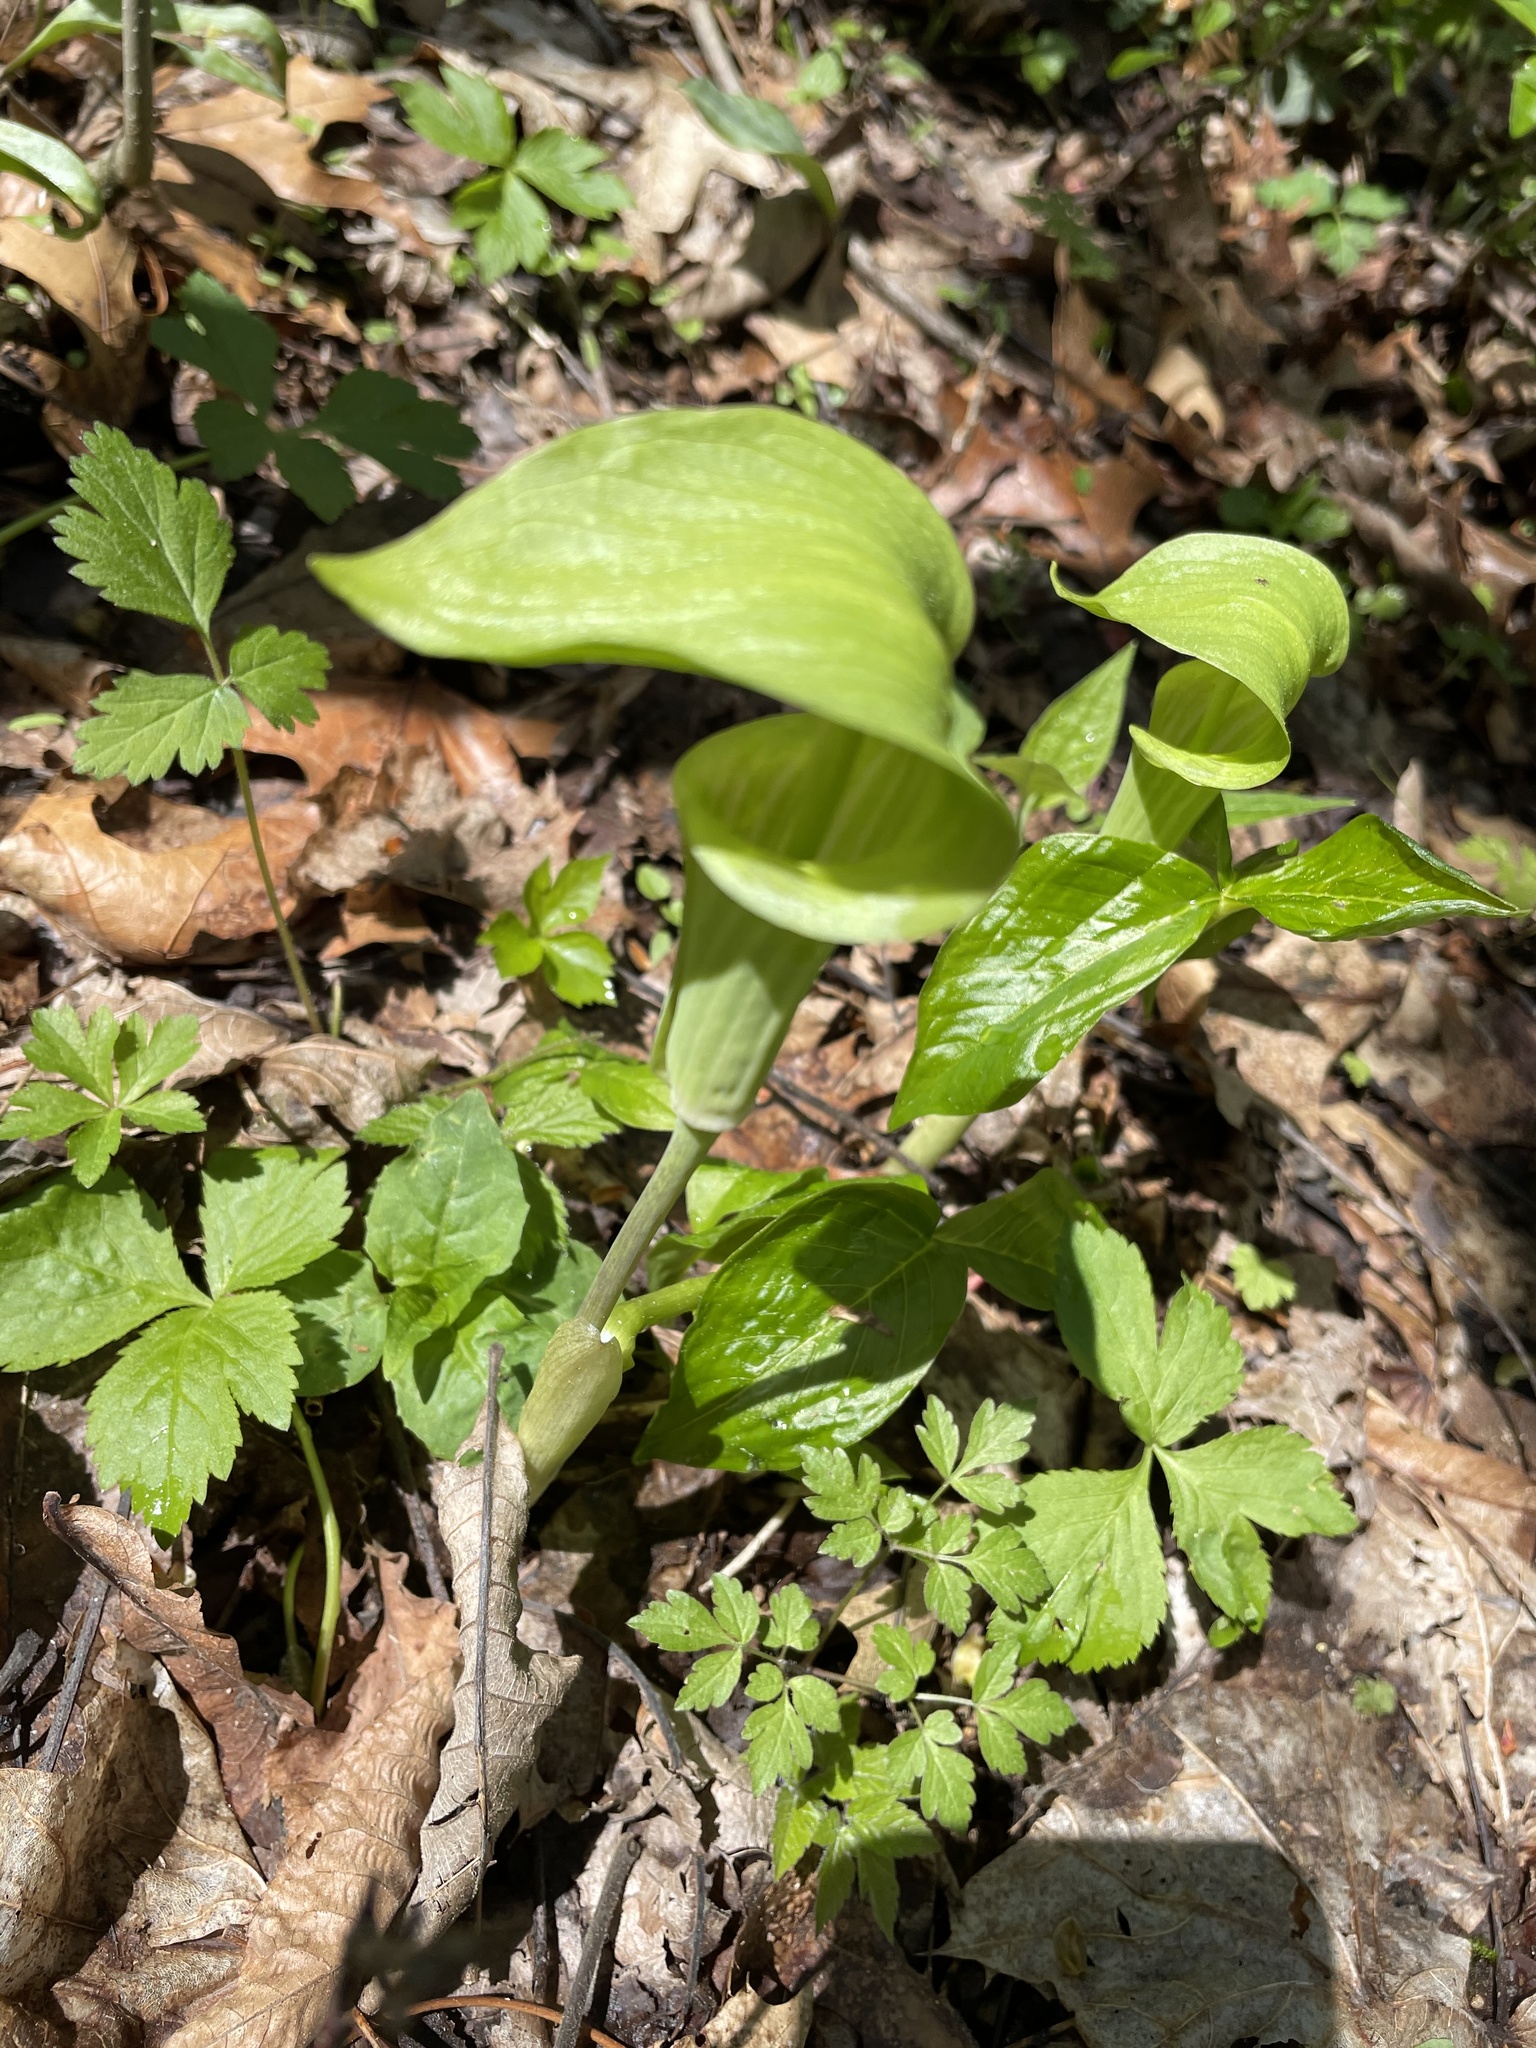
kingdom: Plantae
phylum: Tracheophyta
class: Liliopsida
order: Alismatales
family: Araceae
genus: Arisaema
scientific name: Arisaema triphyllum
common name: Jack-in-the-pulpit
